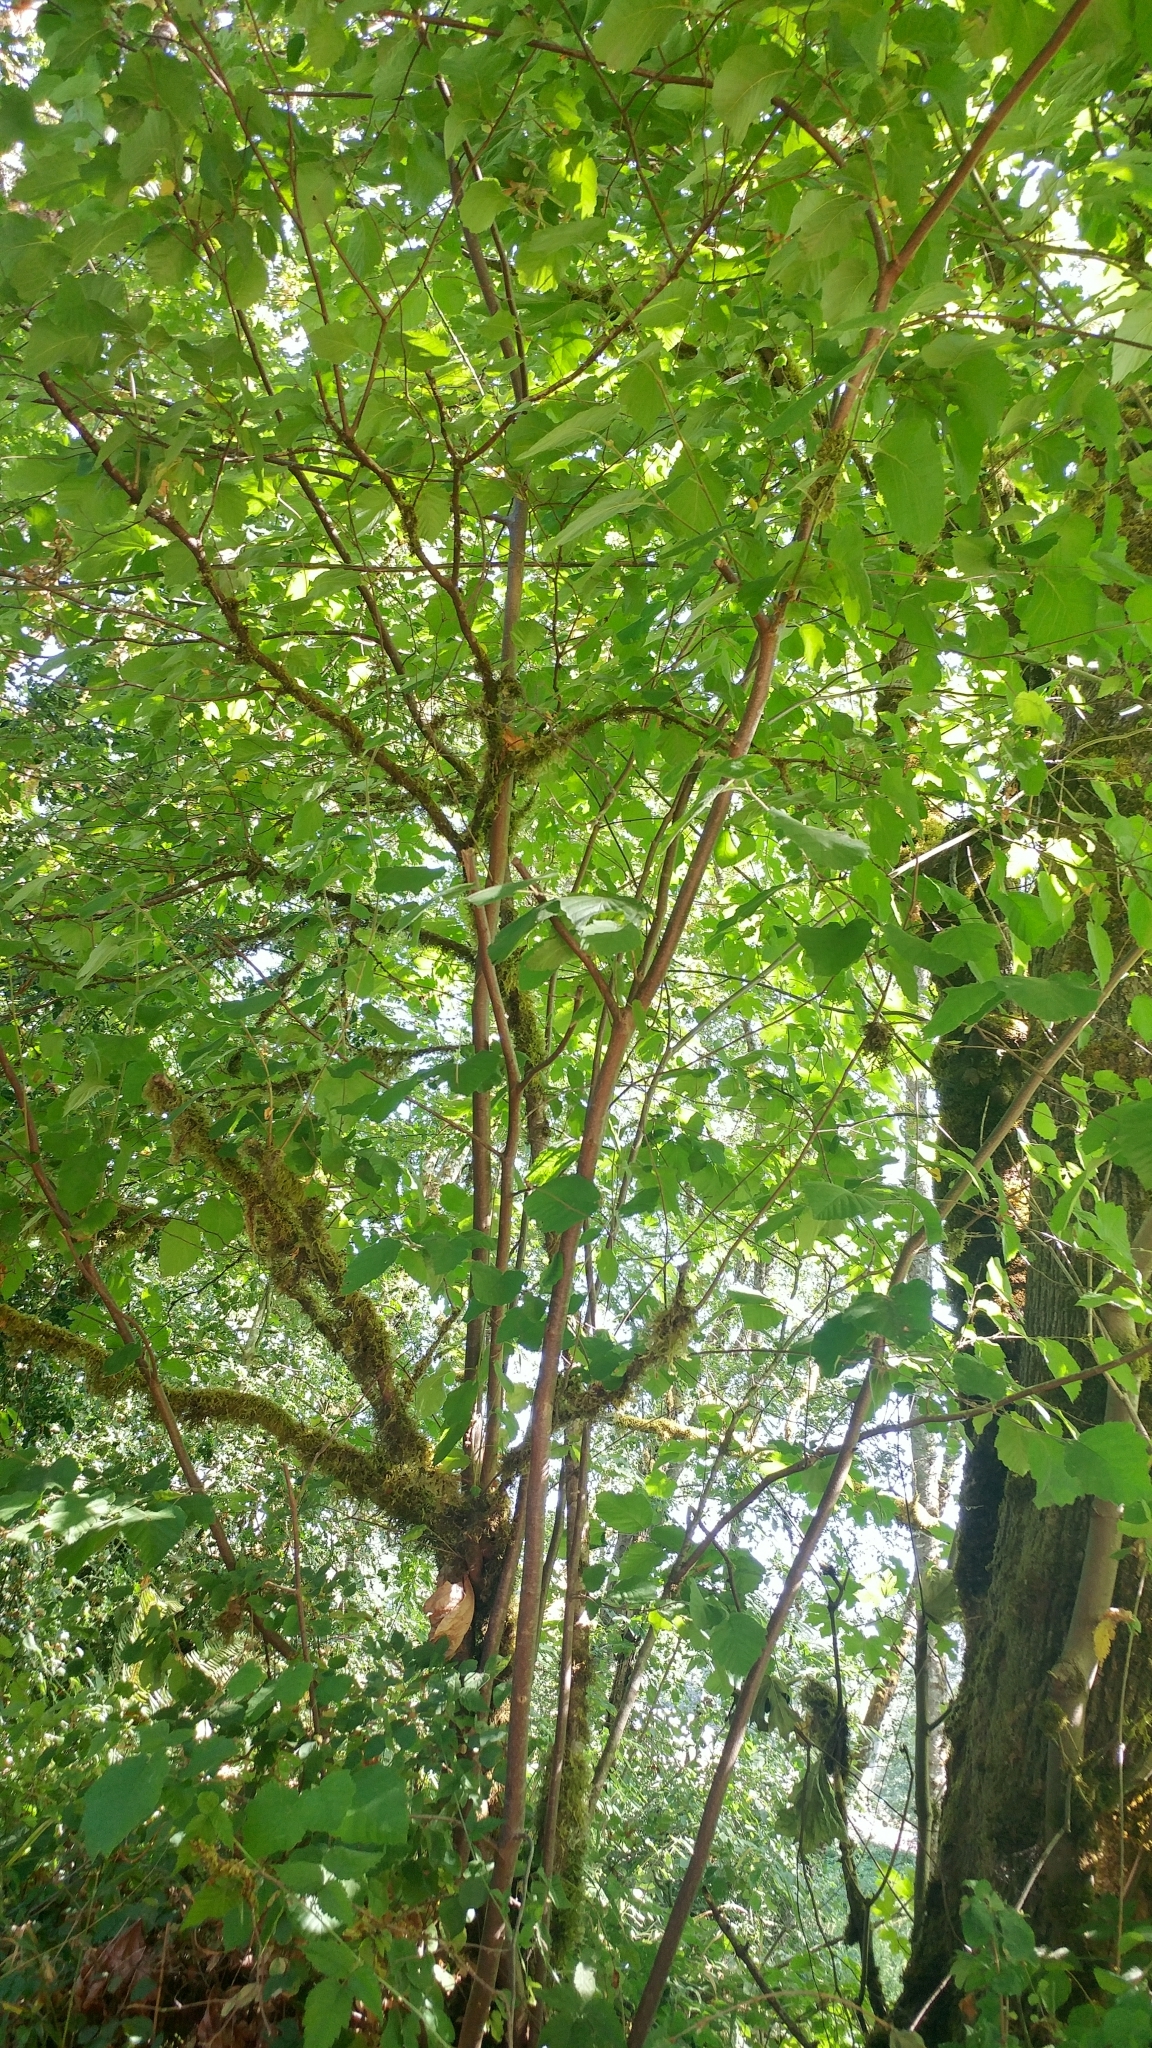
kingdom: Plantae
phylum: Tracheophyta
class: Magnoliopsida
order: Fagales
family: Betulaceae
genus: Corylus
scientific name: Corylus cornuta
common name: Beaked hazel
